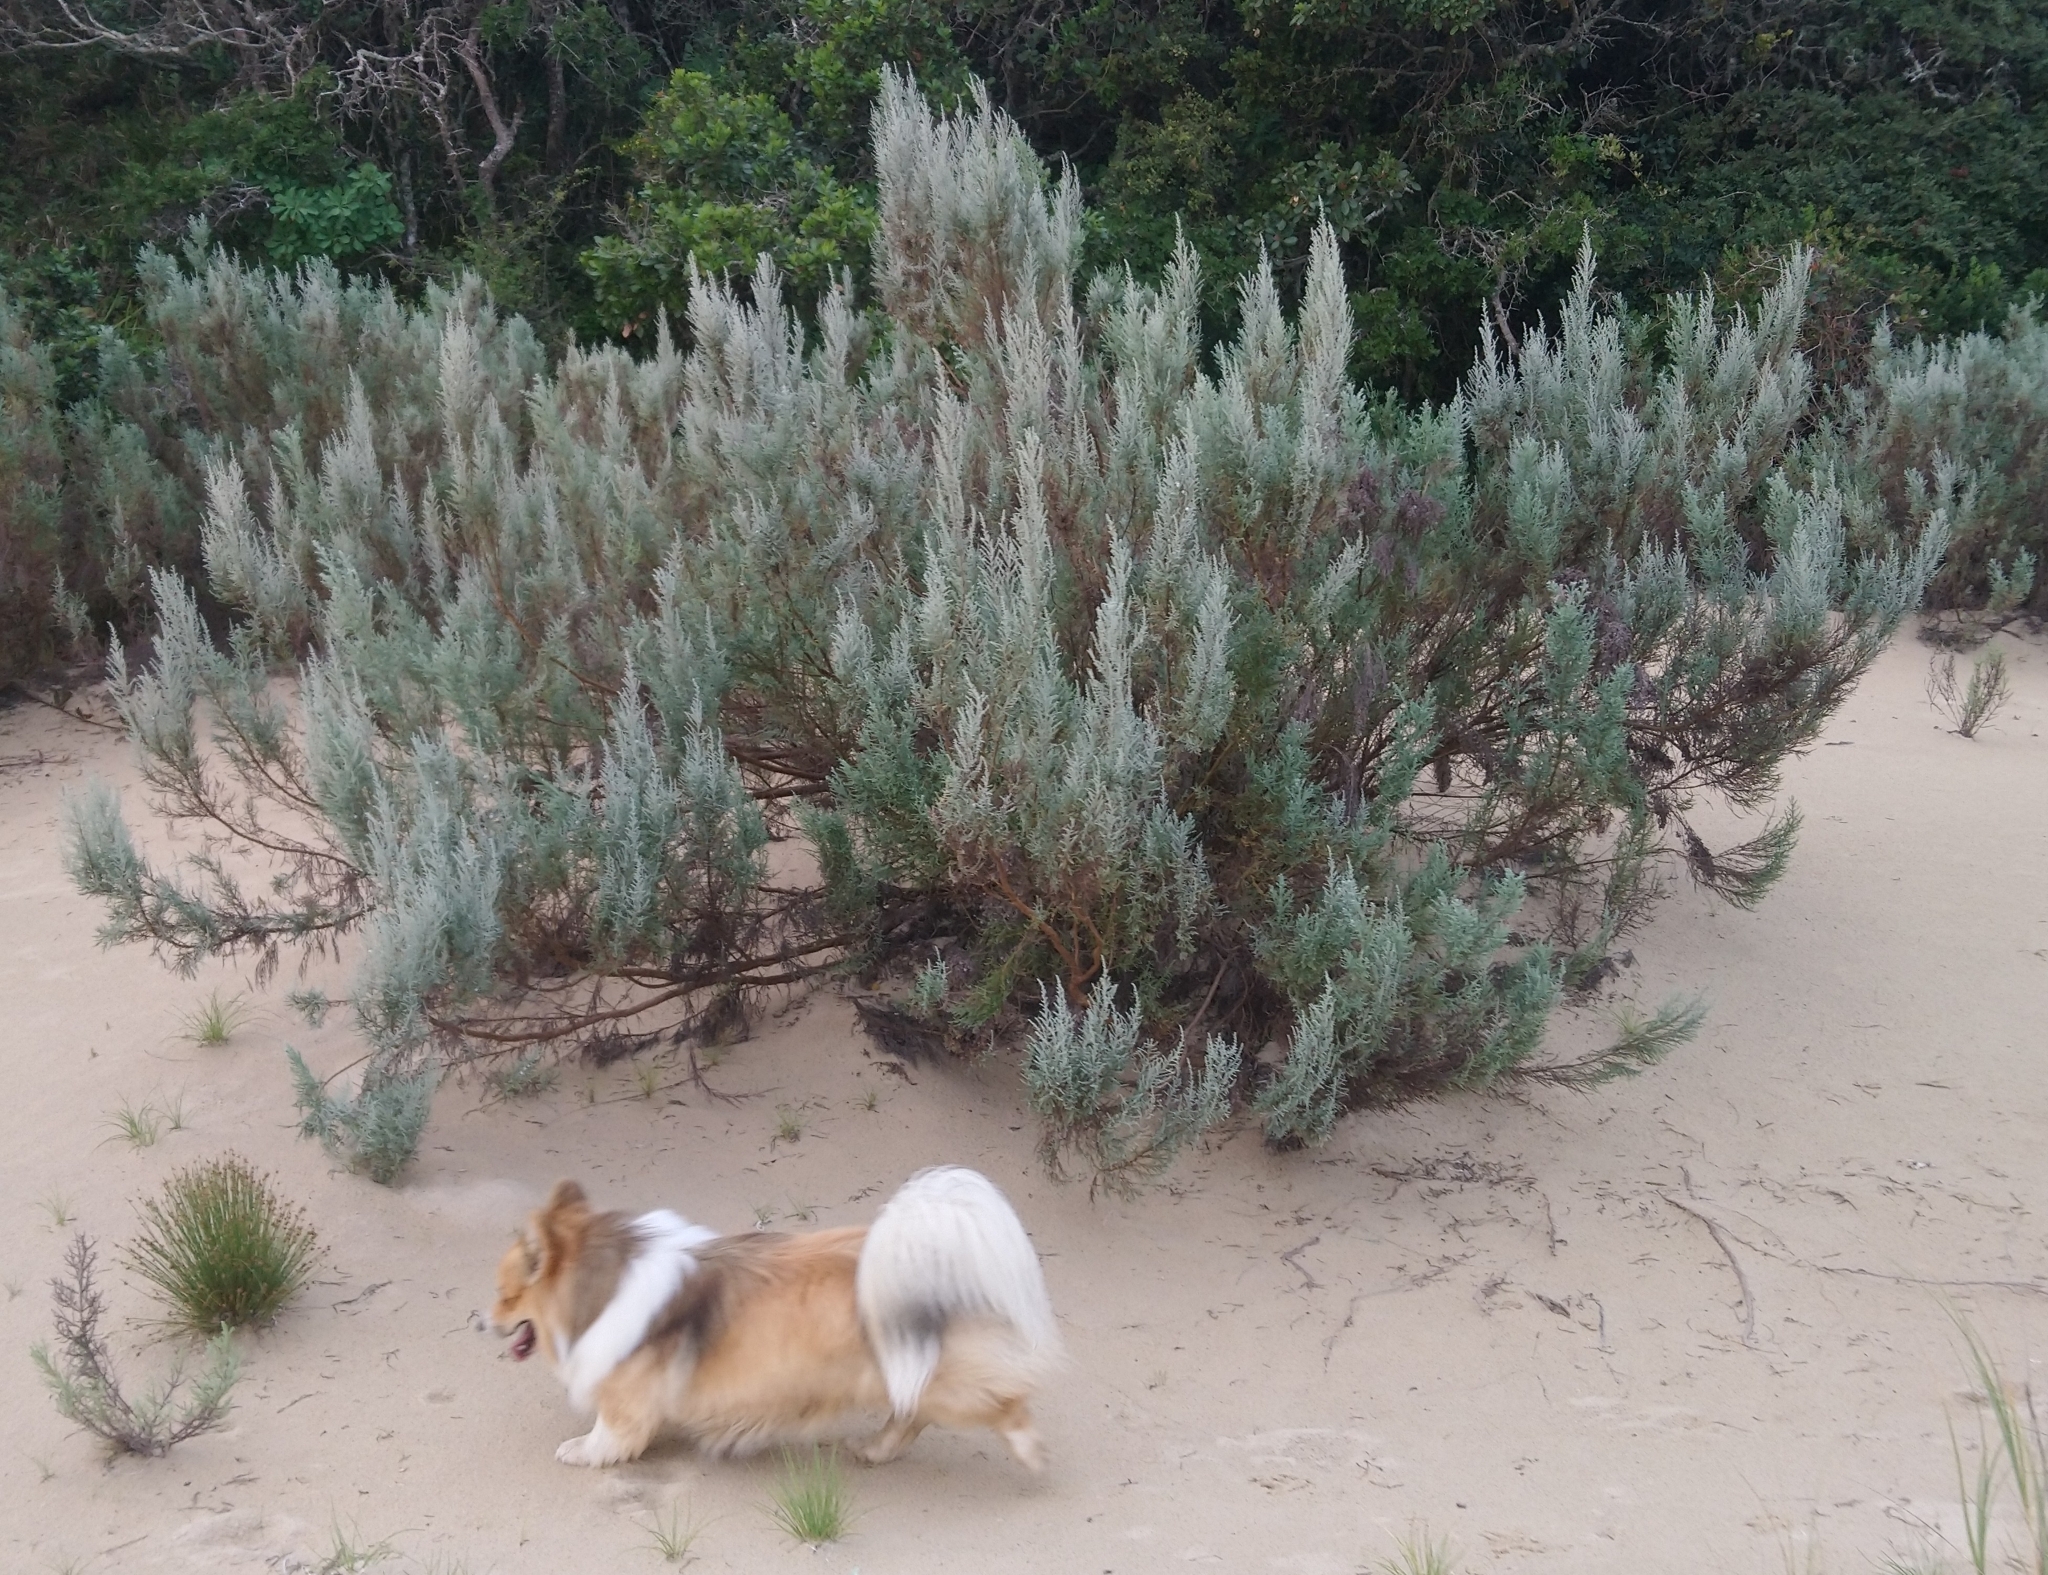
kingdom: Plantae
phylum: Tracheophyta
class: Magnoliopsida
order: Asterales
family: Asteraceae
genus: Seriphium
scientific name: Seriphium
